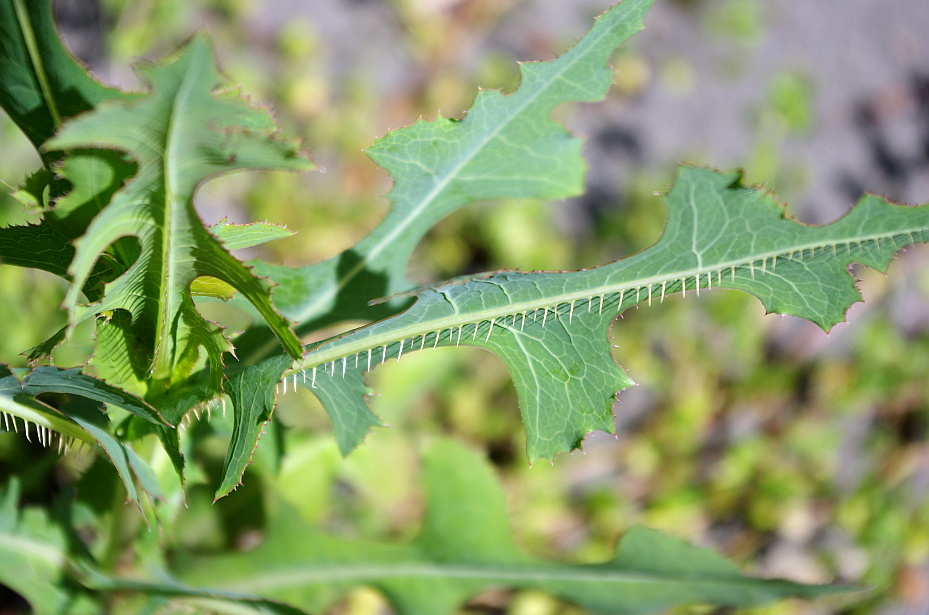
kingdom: Plantae
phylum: Tracheophyta
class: Magnoliopsida
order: Asterales
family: Asteraceae
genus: Lactuca
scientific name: Lactuca serriola
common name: Prickly lettuce
